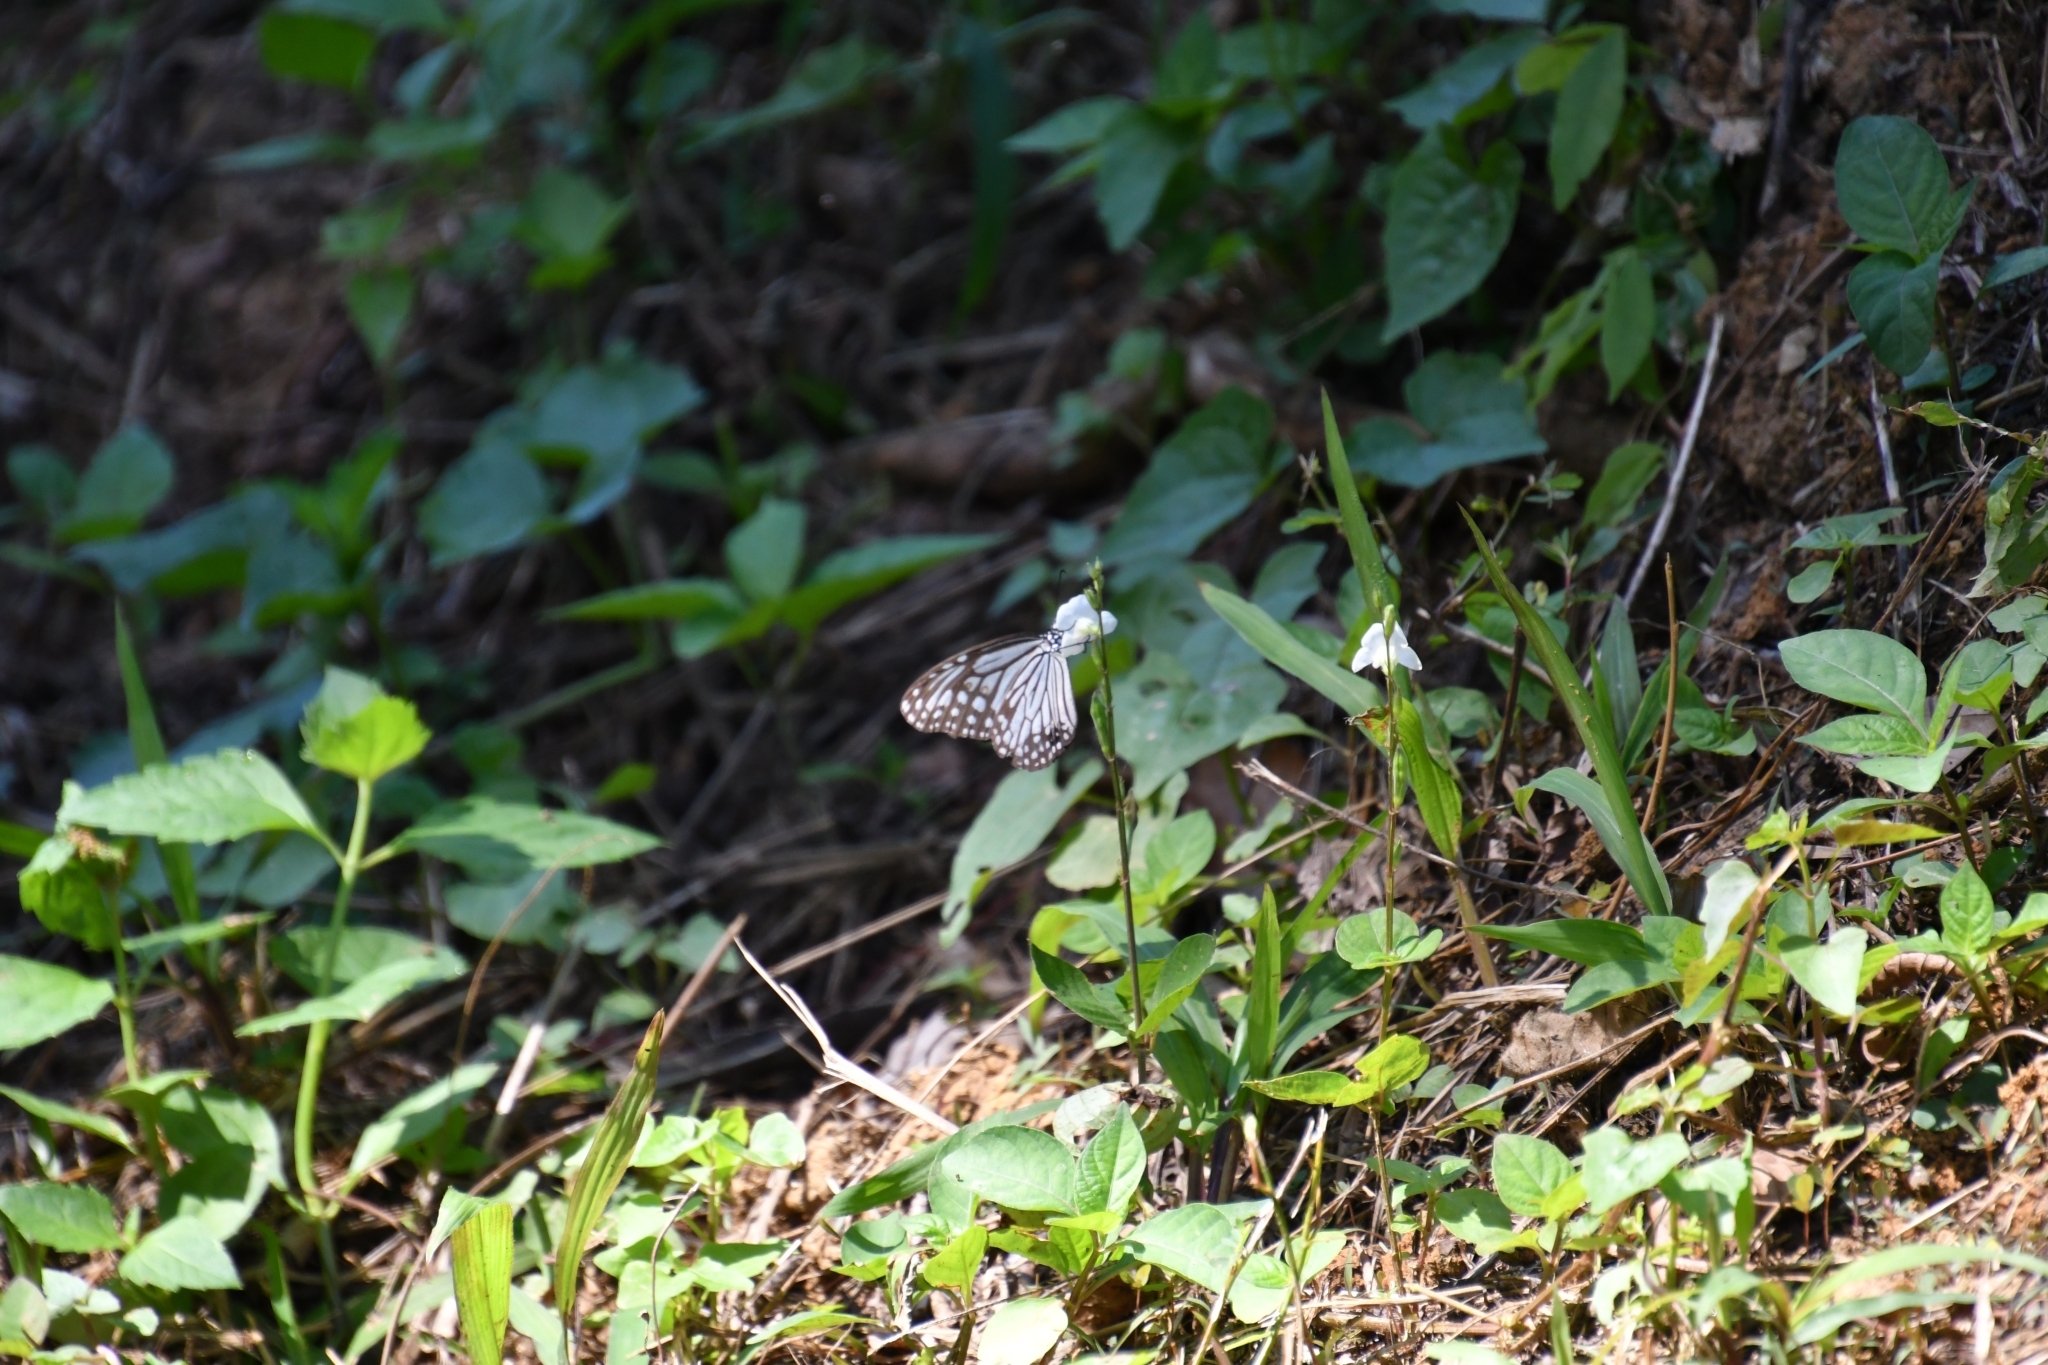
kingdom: Animalia
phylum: Arthropoda
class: Insecta
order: Lepidoptera
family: Nymphalidae
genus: Parantica
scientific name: Parantica aglea
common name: Glassy tiger
